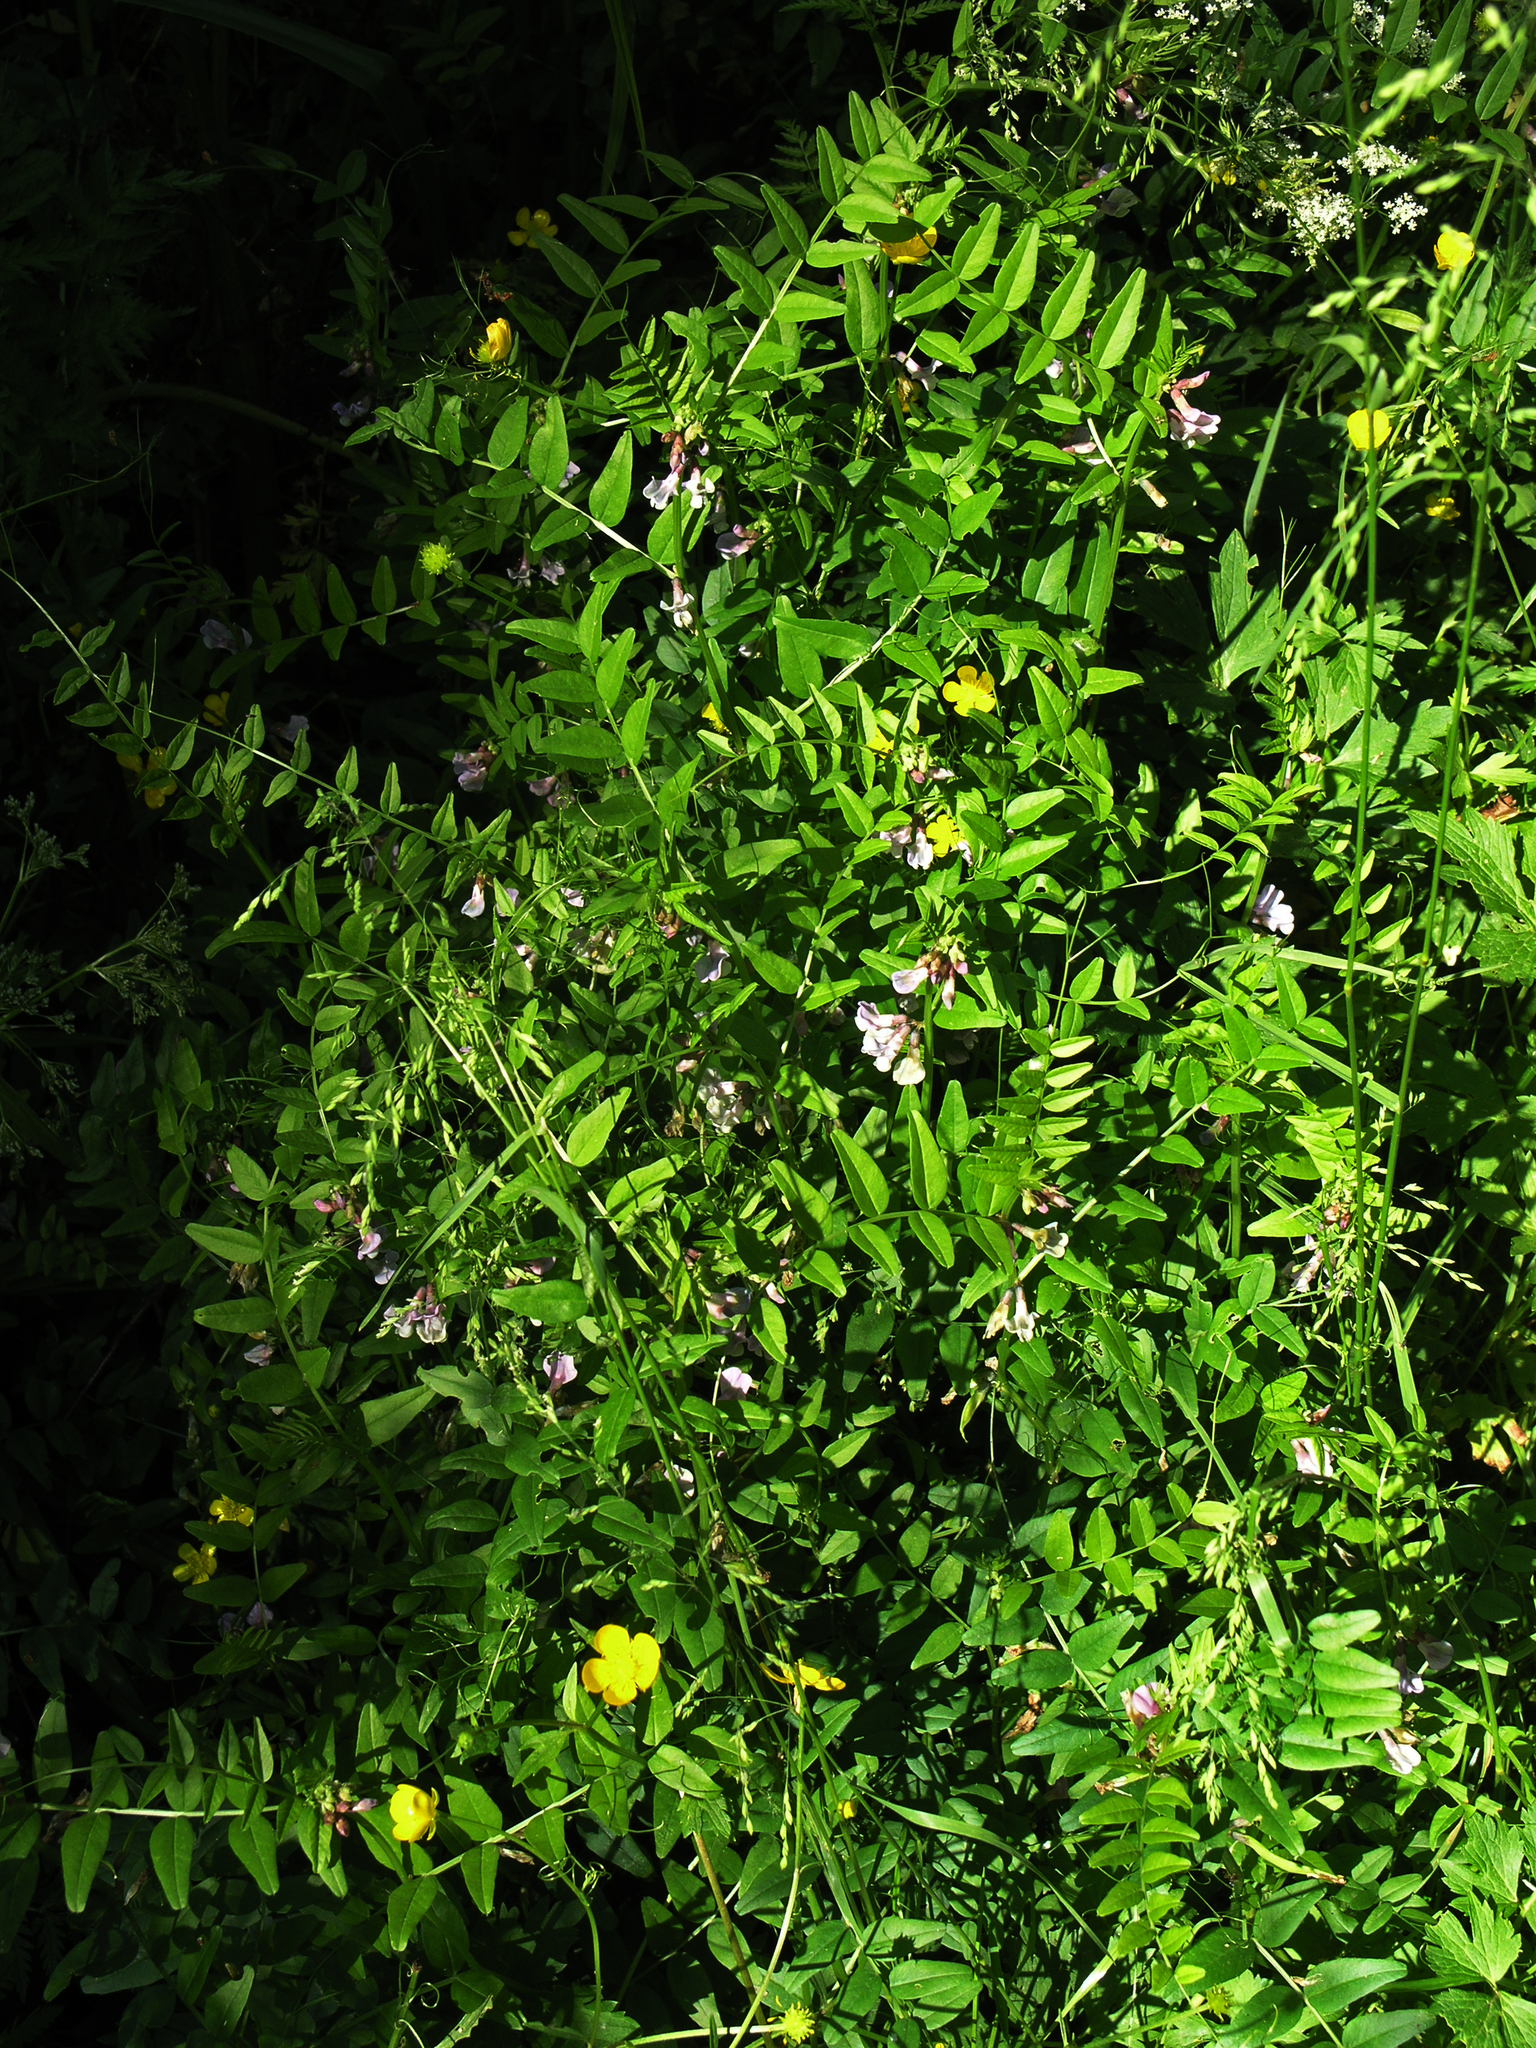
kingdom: Plantae
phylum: Tracheophyta
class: Magnoliopsida
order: Fabales
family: Fabaceae
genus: Vicia
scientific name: Vicia sepium
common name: Bush vetch
